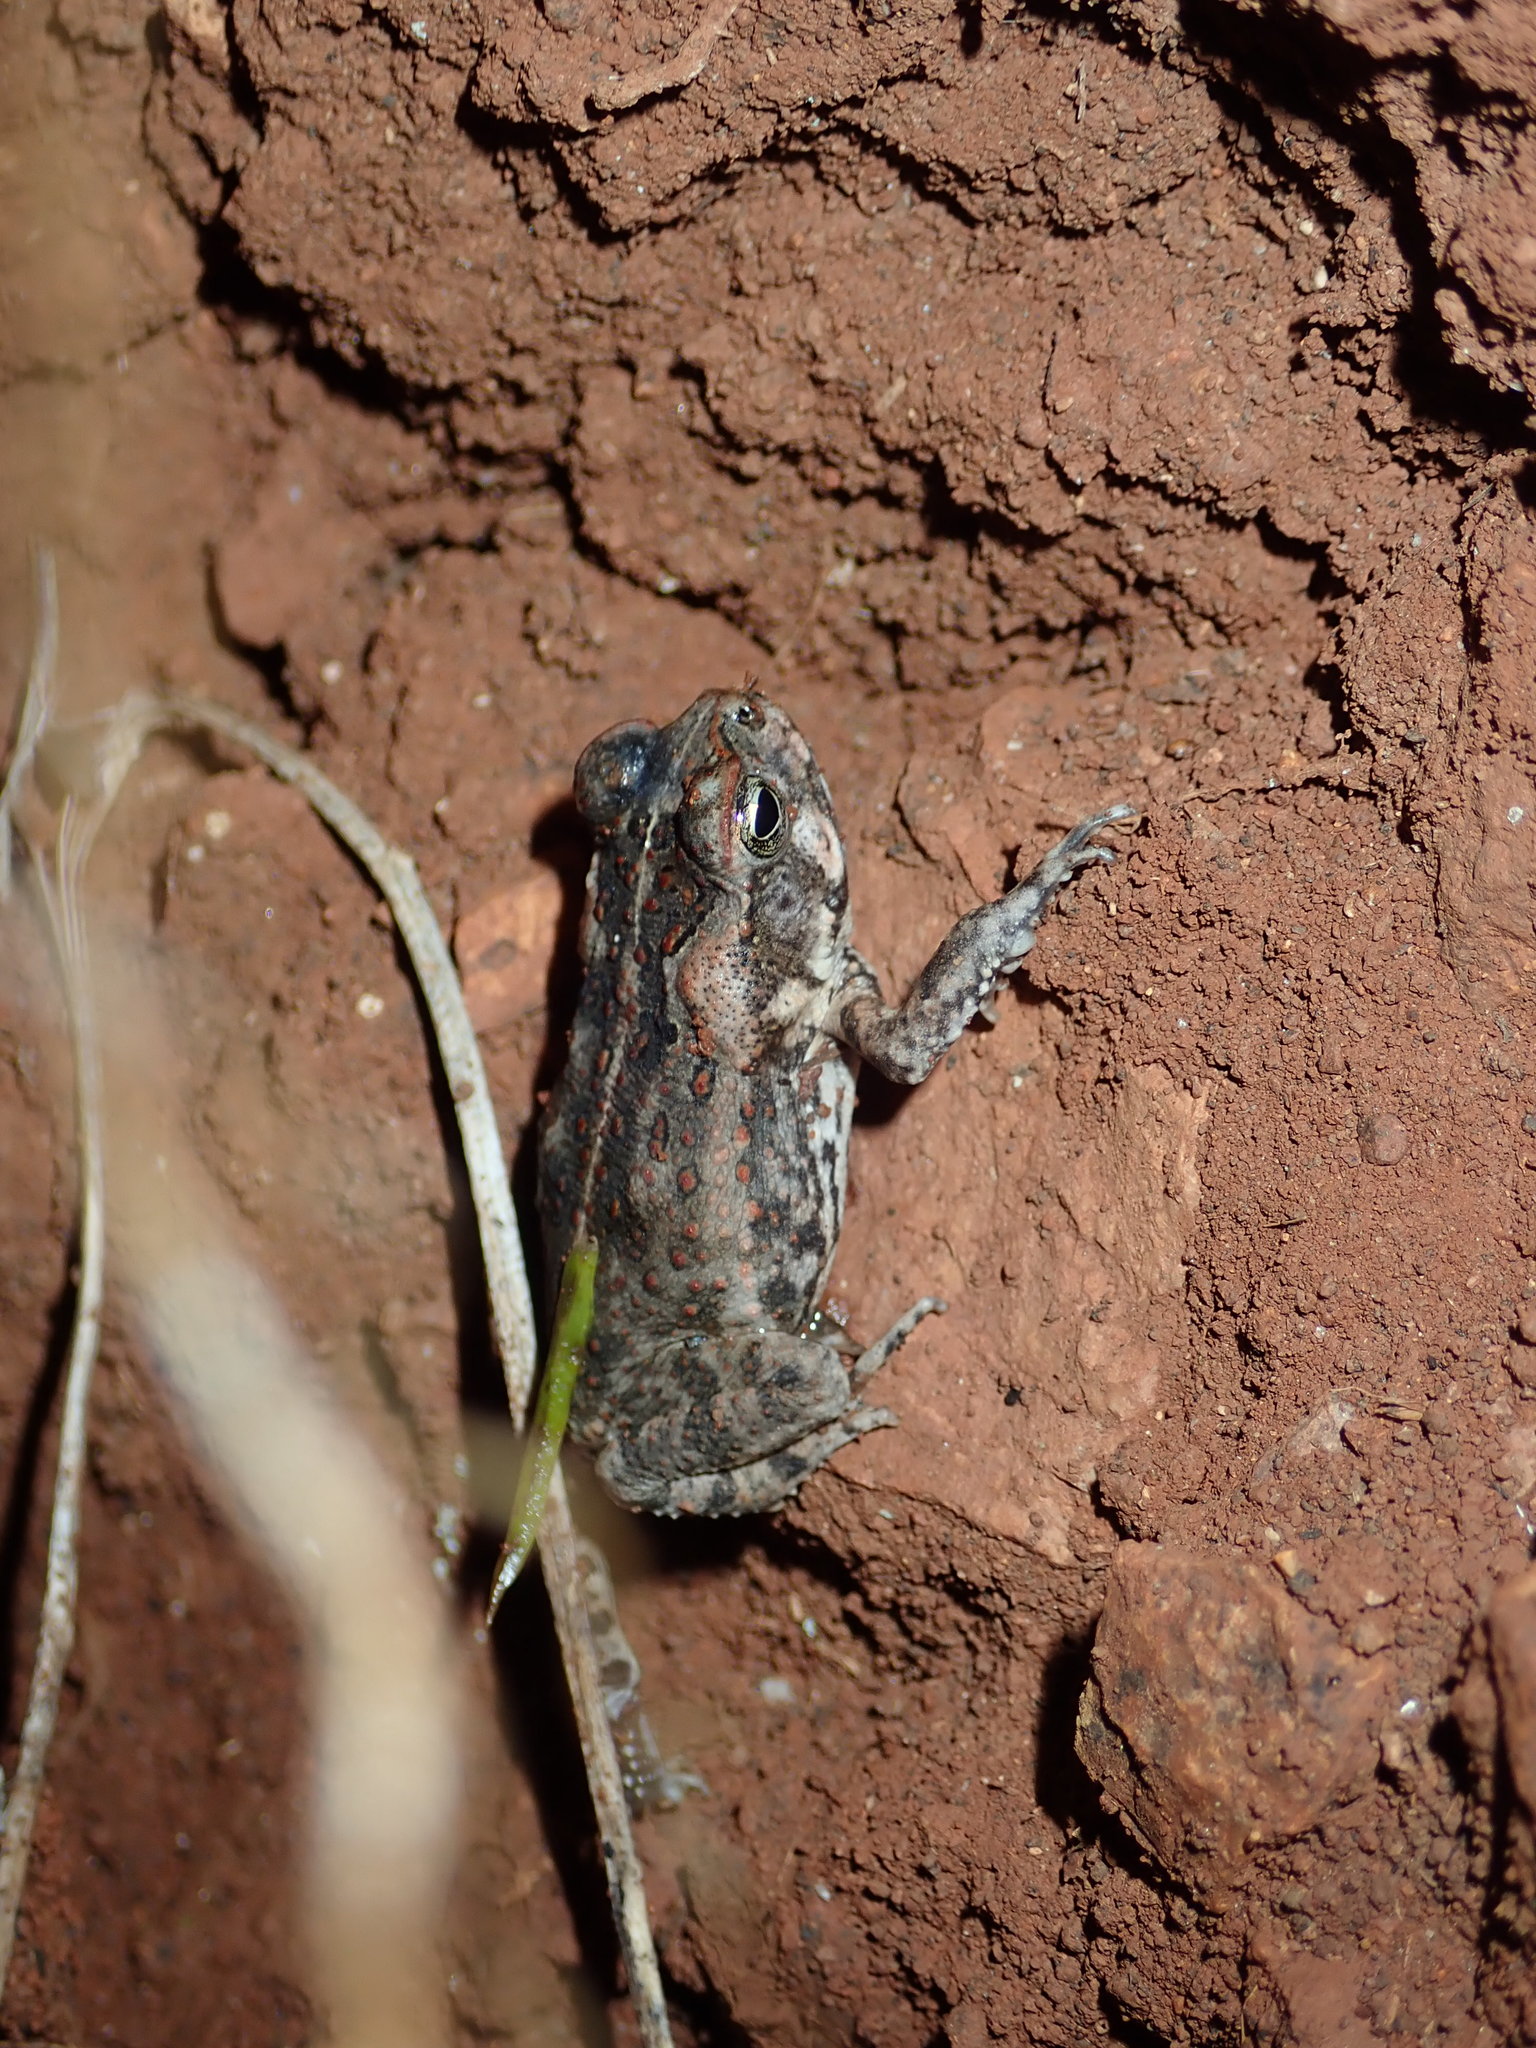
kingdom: Animalia
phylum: Chordata
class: Amphibia
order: Anura
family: Bufonidae
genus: Rhinella
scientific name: Rhinella marina
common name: Cane toad
